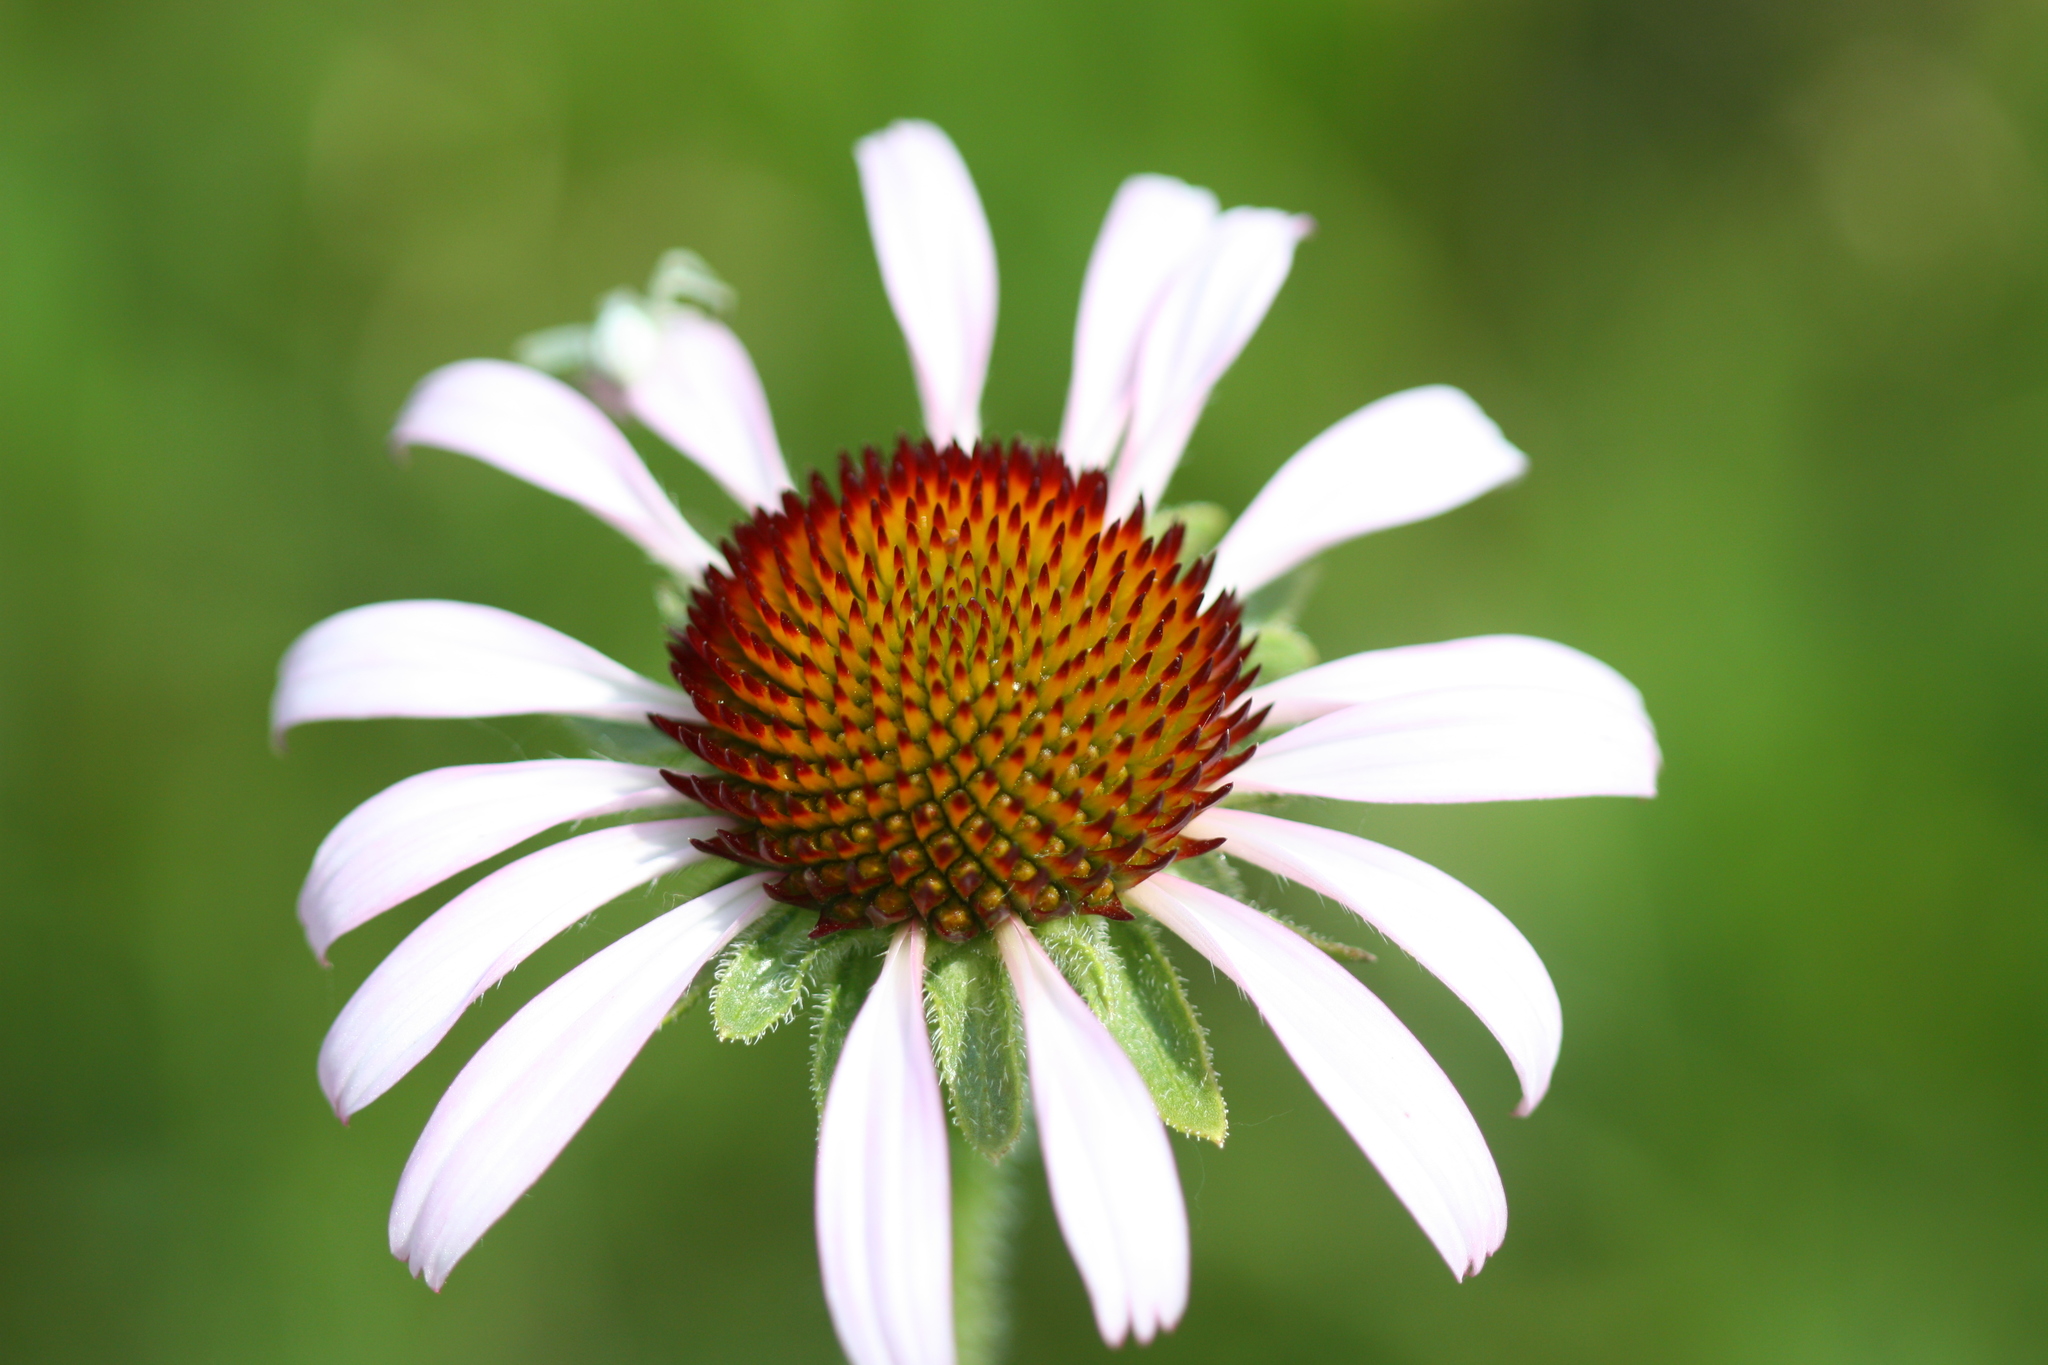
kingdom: Plantae
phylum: Tracheophyta
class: Magnoliopsida
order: Asterales
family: Asteraceae
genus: Echinacea
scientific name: Echinacea angustifolia
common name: Black-sampson echinacea
